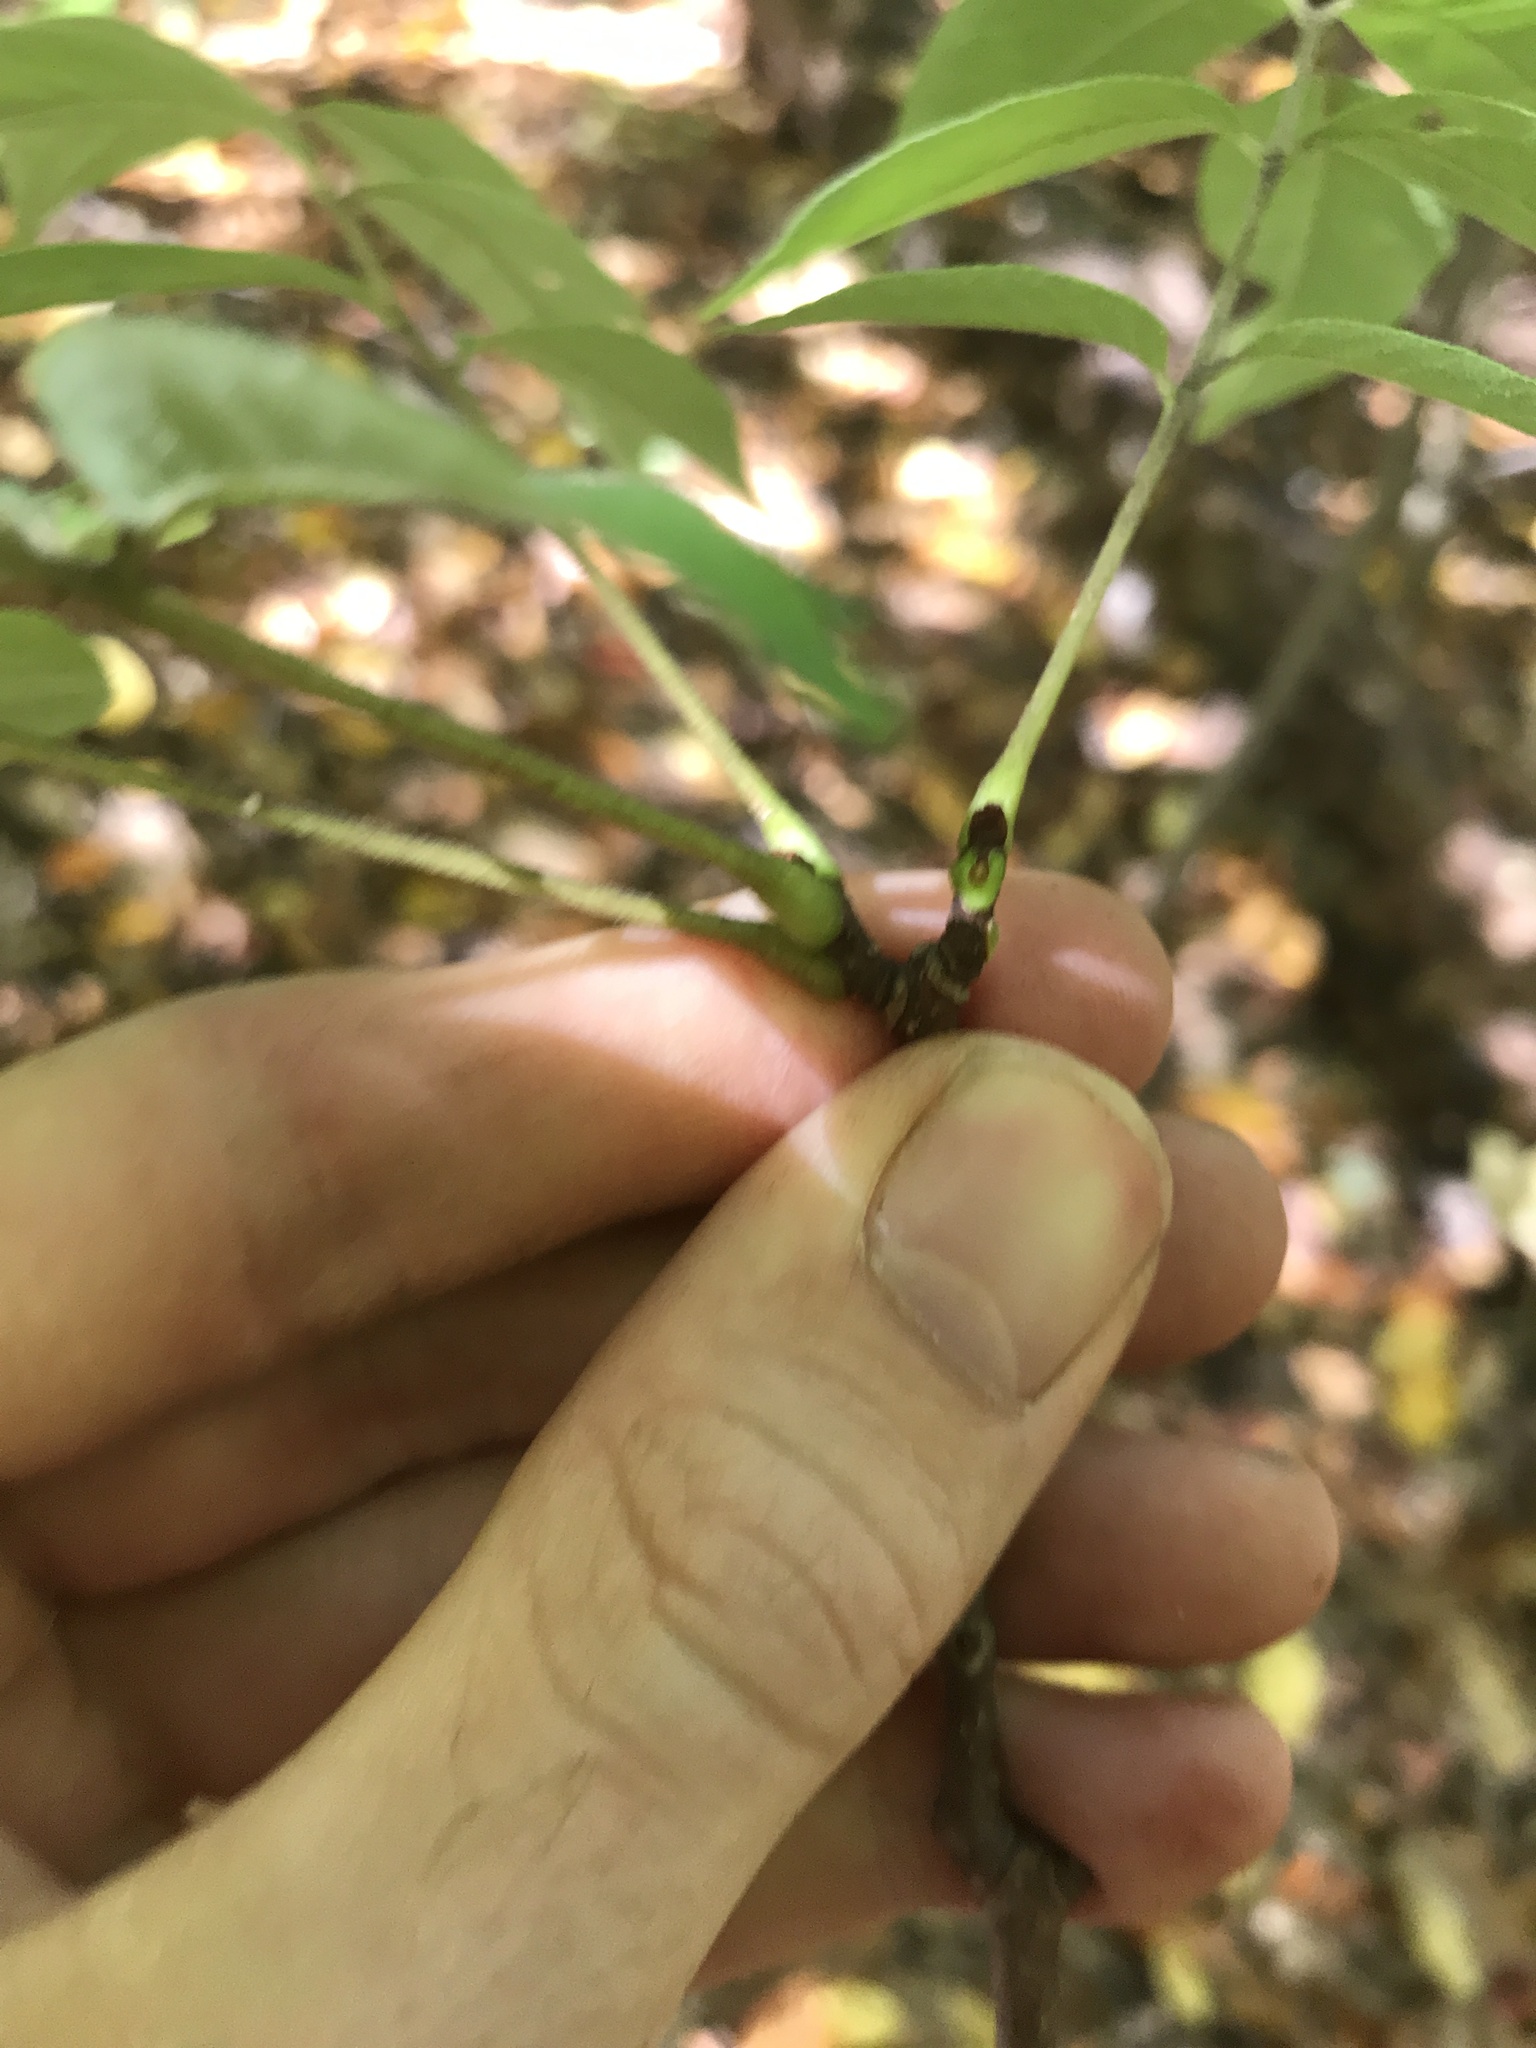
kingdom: Plantae
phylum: Tracheophyta
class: Magnoliopsida
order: Sapindales
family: Rutaceae
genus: Phellodendron
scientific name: Phellodendron amurense
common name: Amur corktree
